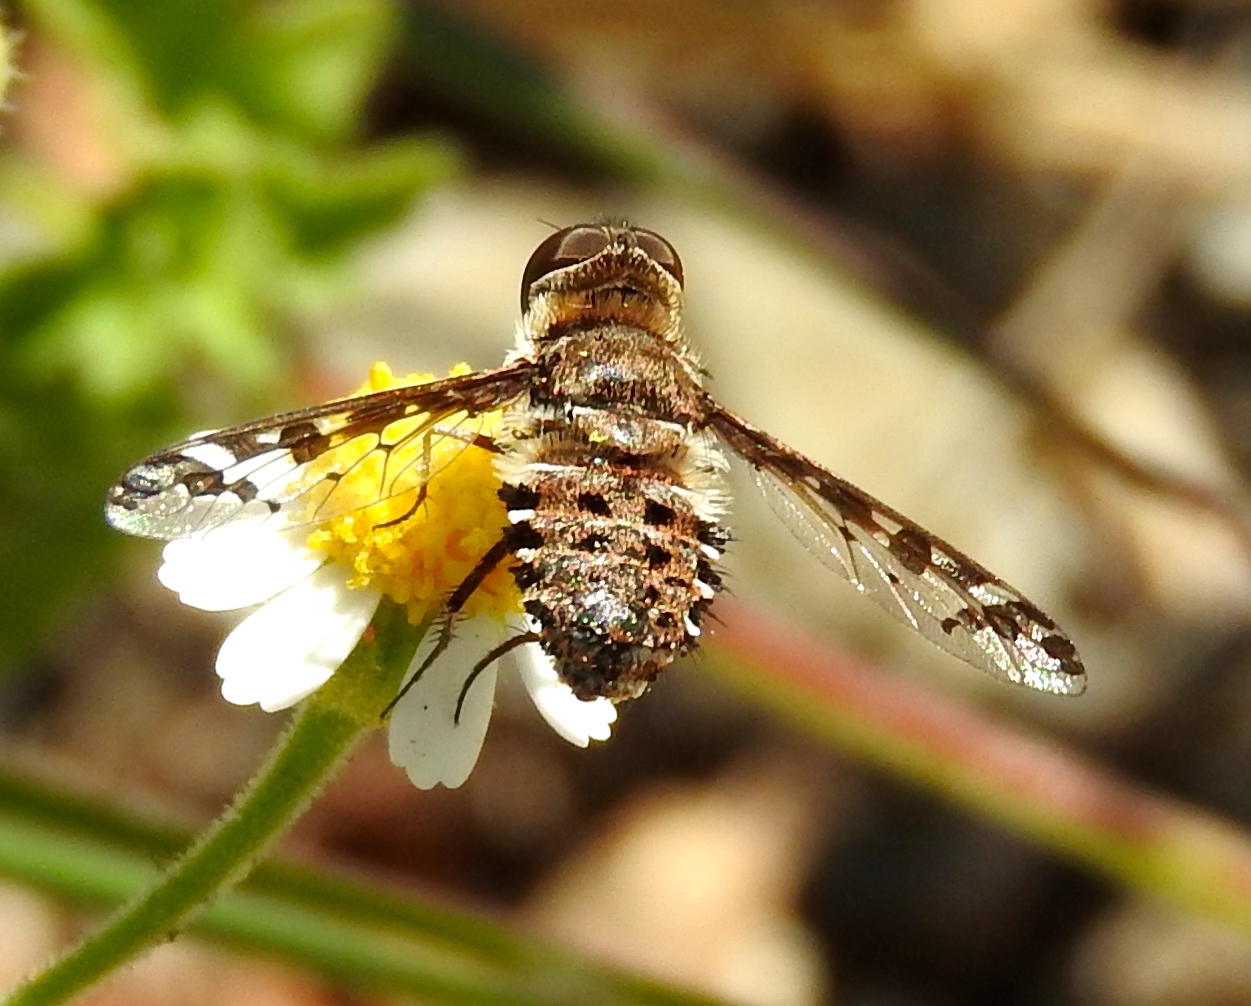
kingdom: Animalia
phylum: Arthropoda
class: Insecta
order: Diptera
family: Bombyliidae
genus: Lepidanthrax
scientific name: Lepidanthrax
